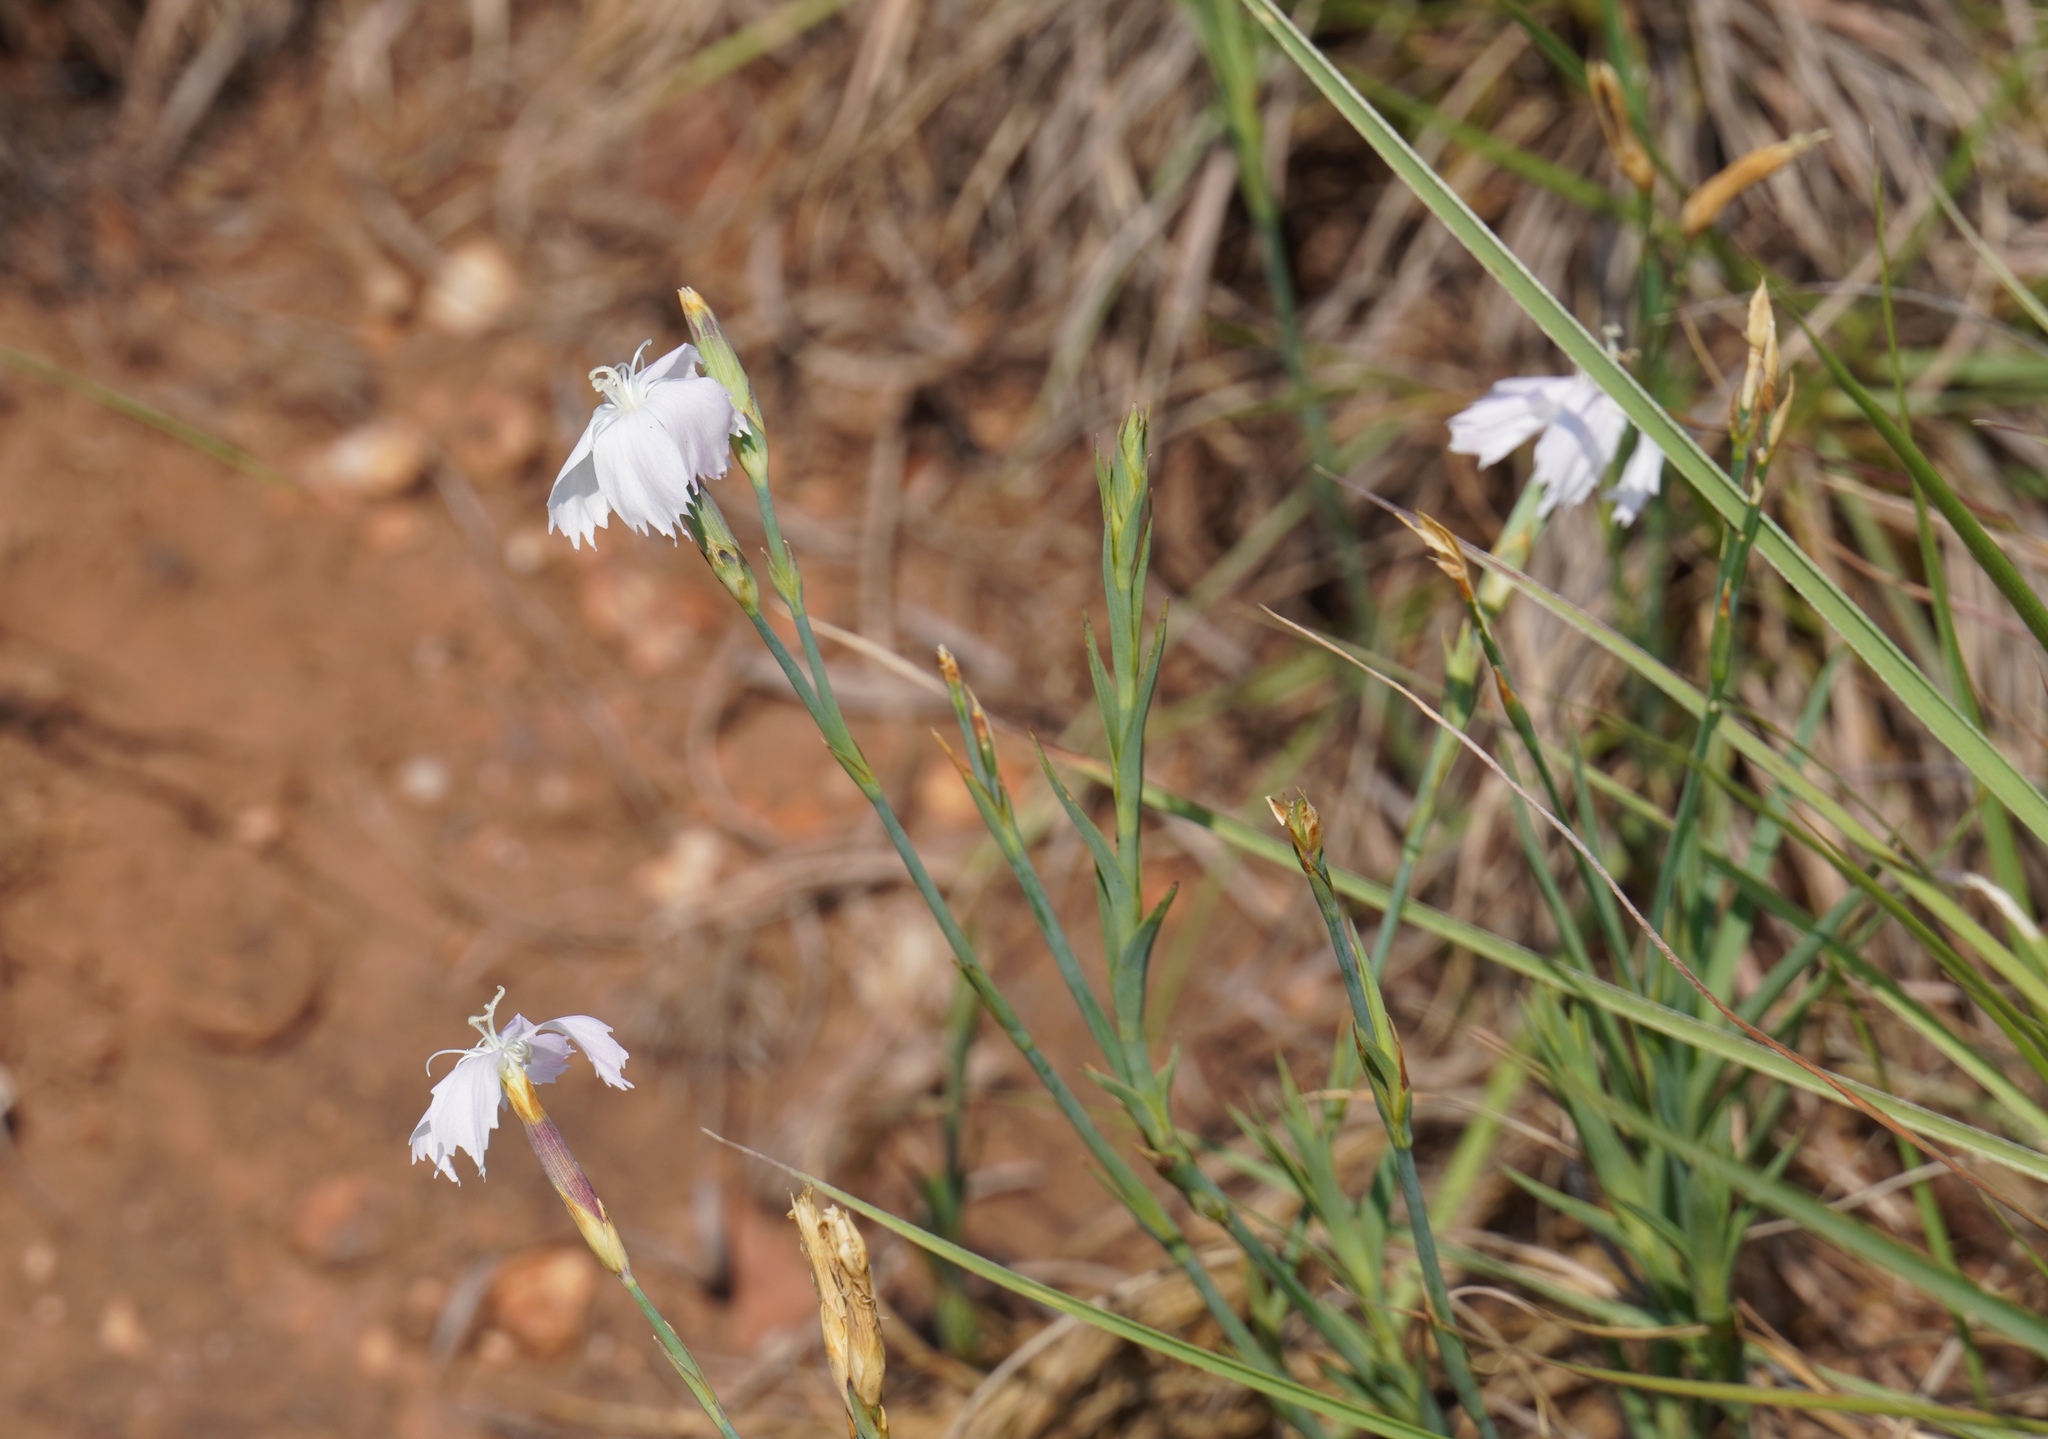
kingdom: Plantae
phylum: Tracheophyta
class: Magnoliopsida
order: Caryophyllales
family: Caryophyllaceae
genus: Dianthus
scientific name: Dianthus mooiensis
